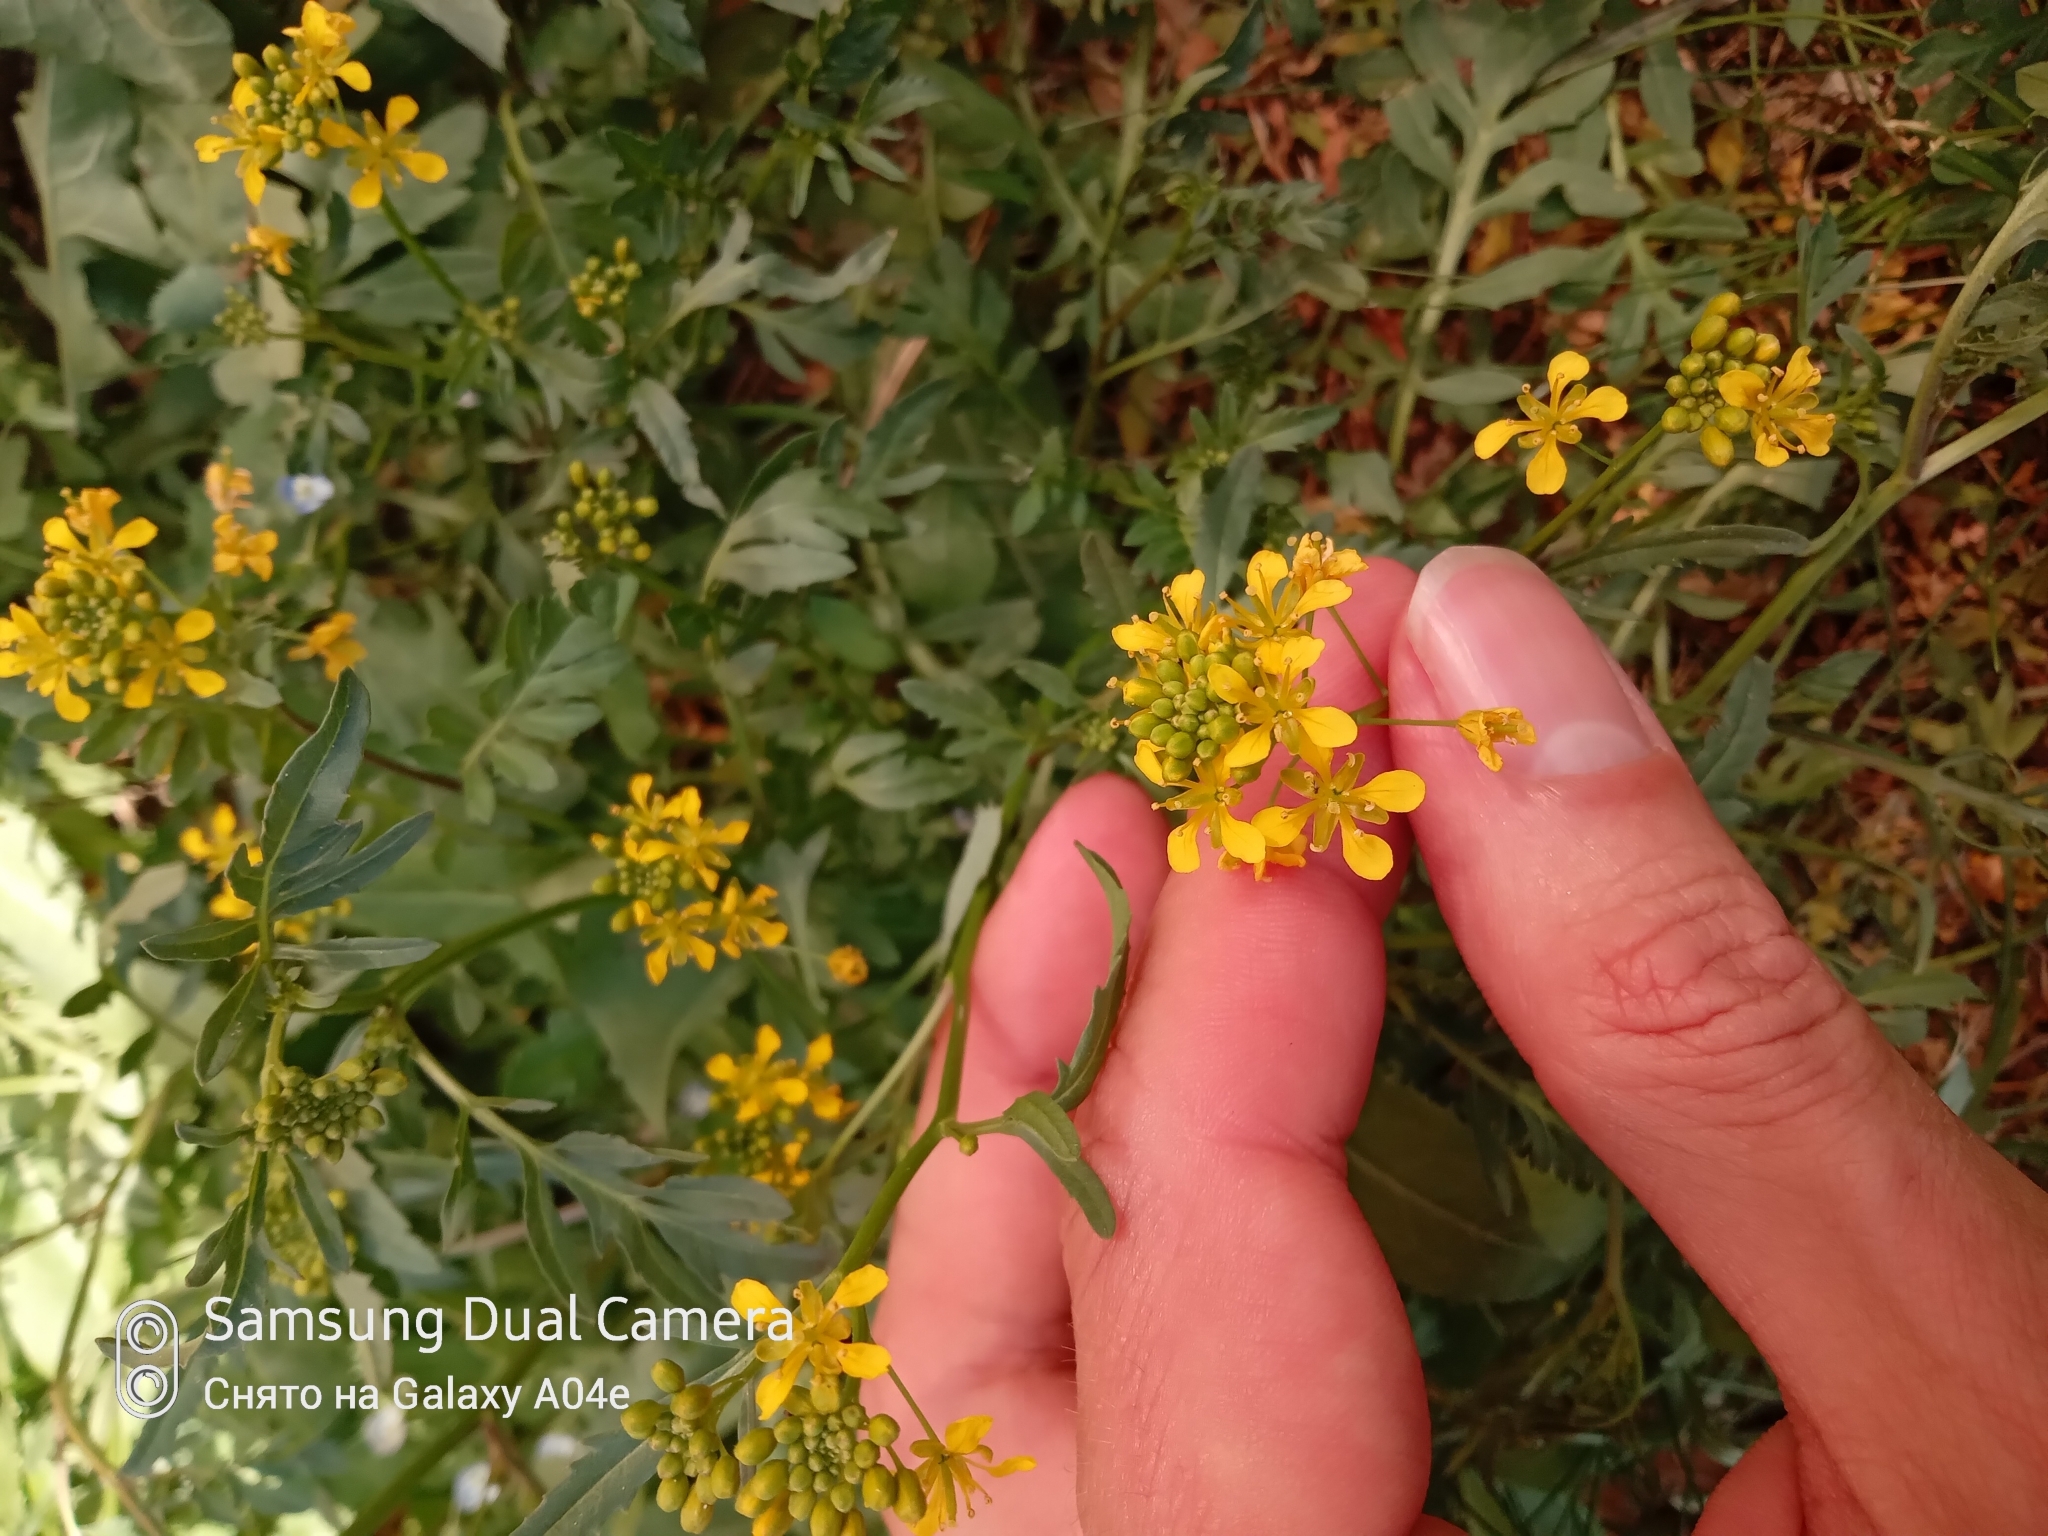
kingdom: Plantae
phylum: Tracheophyta
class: Magnoliopsida
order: Brassicales
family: Brassicaceae
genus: Rorippa
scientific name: Rorippa sylvestris
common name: Creeping yellowcress
